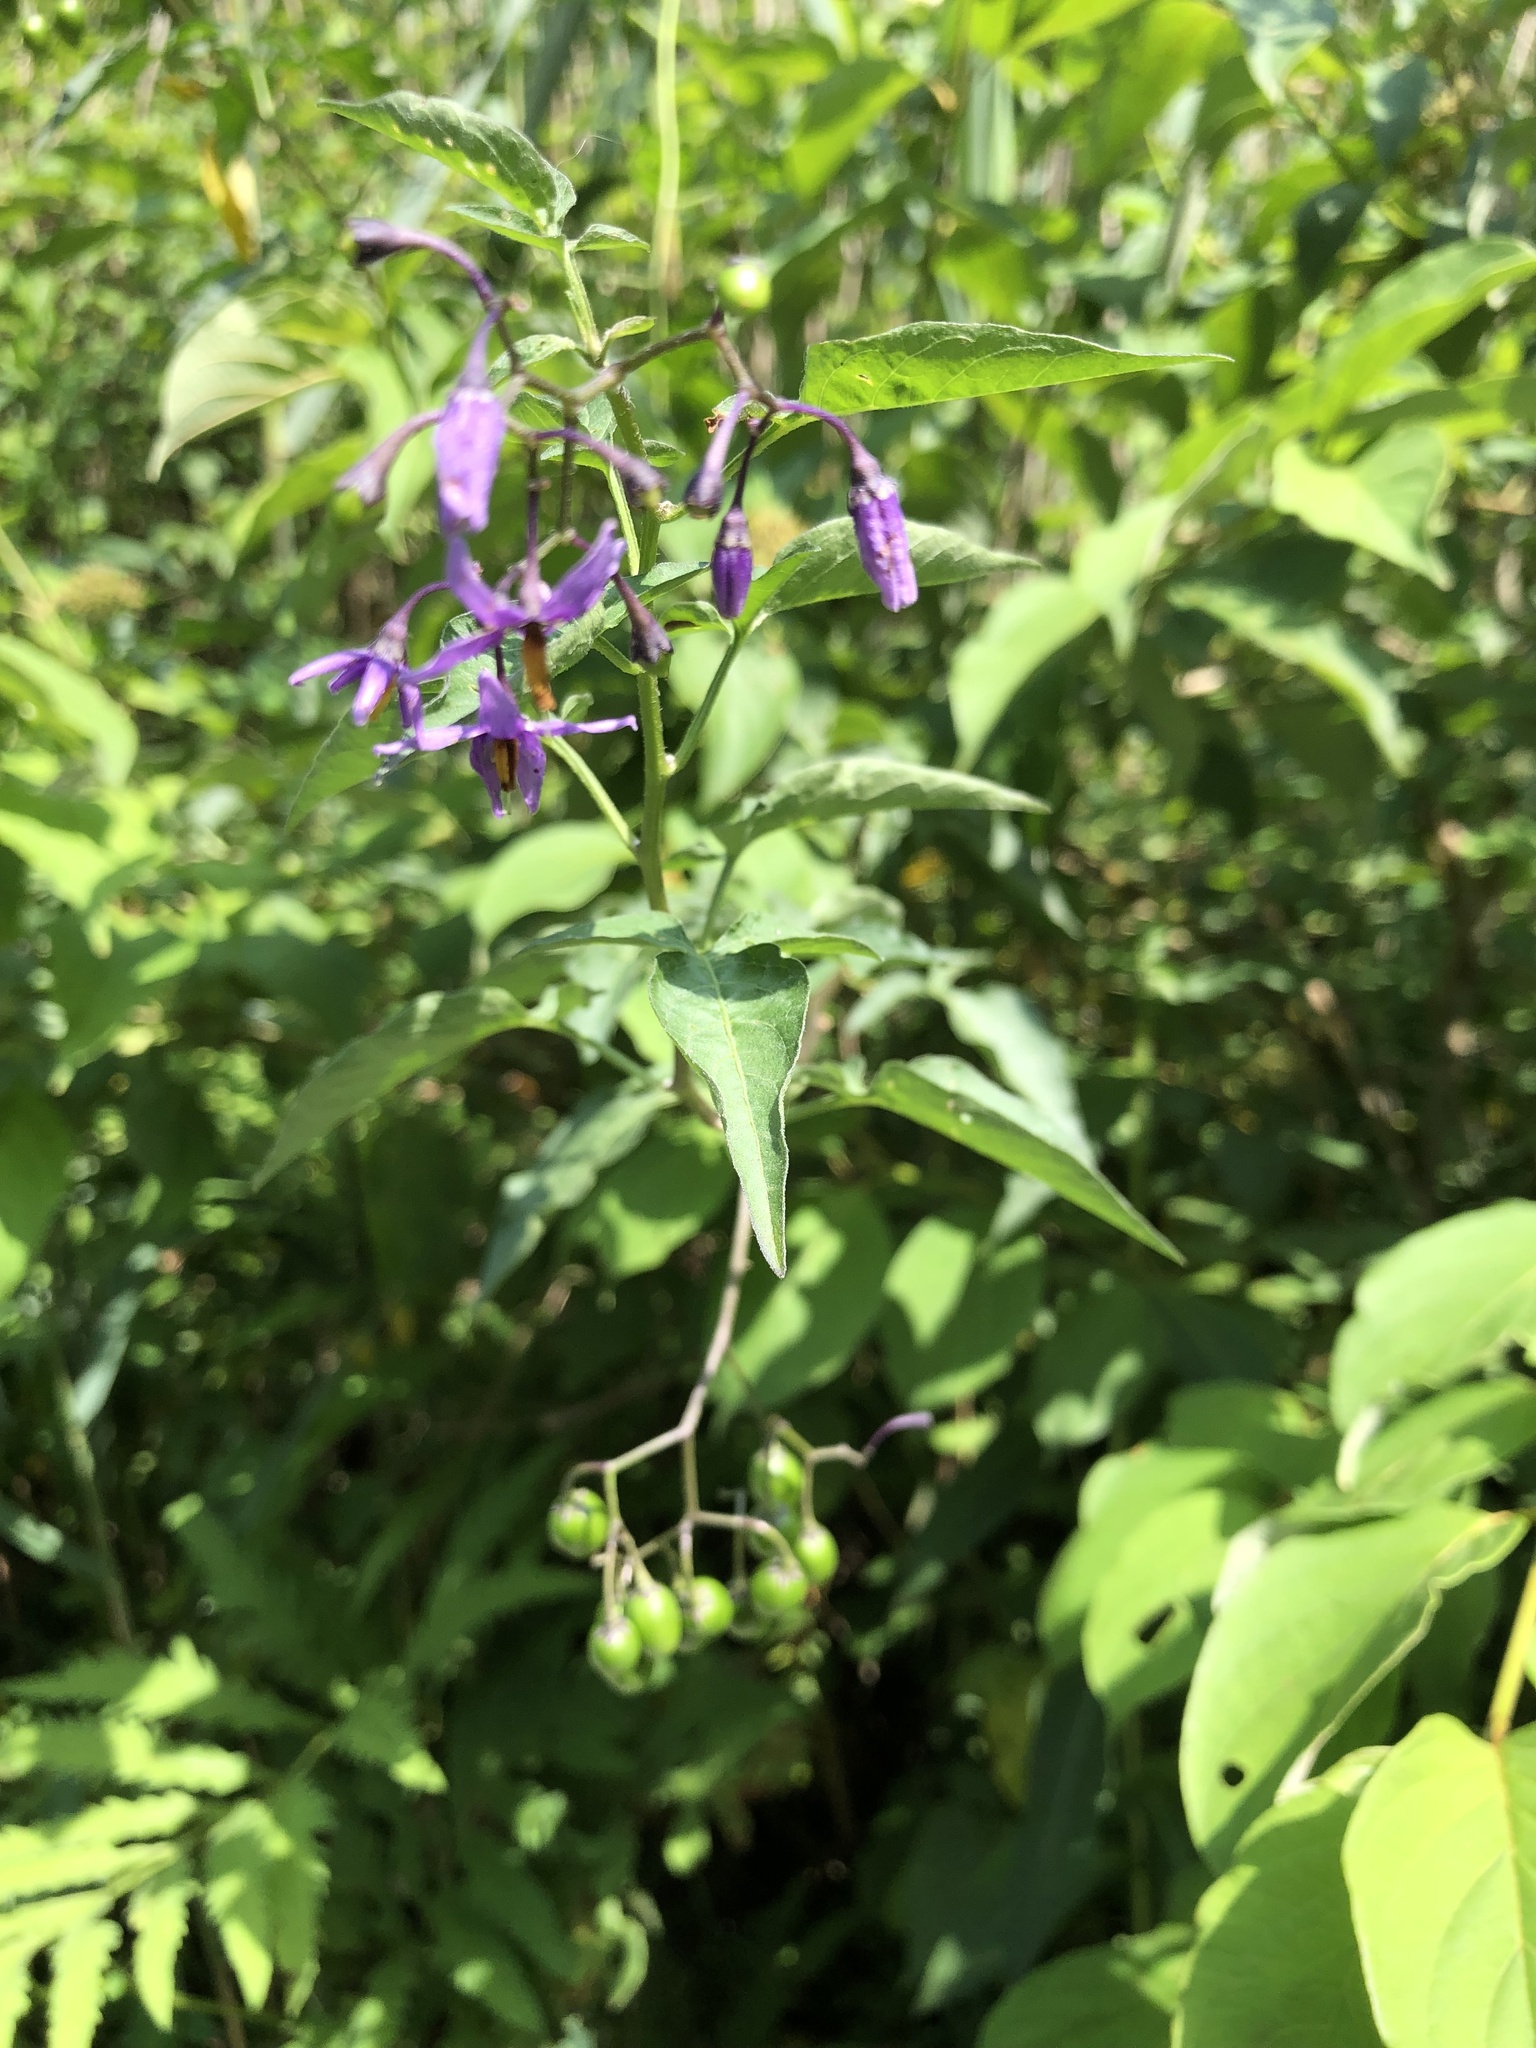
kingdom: Plantae
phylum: Tracheophyta
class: Magnoliopsida
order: Solanales
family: Solanaceae
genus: Solanum
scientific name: Solanum dulcamara
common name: Climbing nightshade
